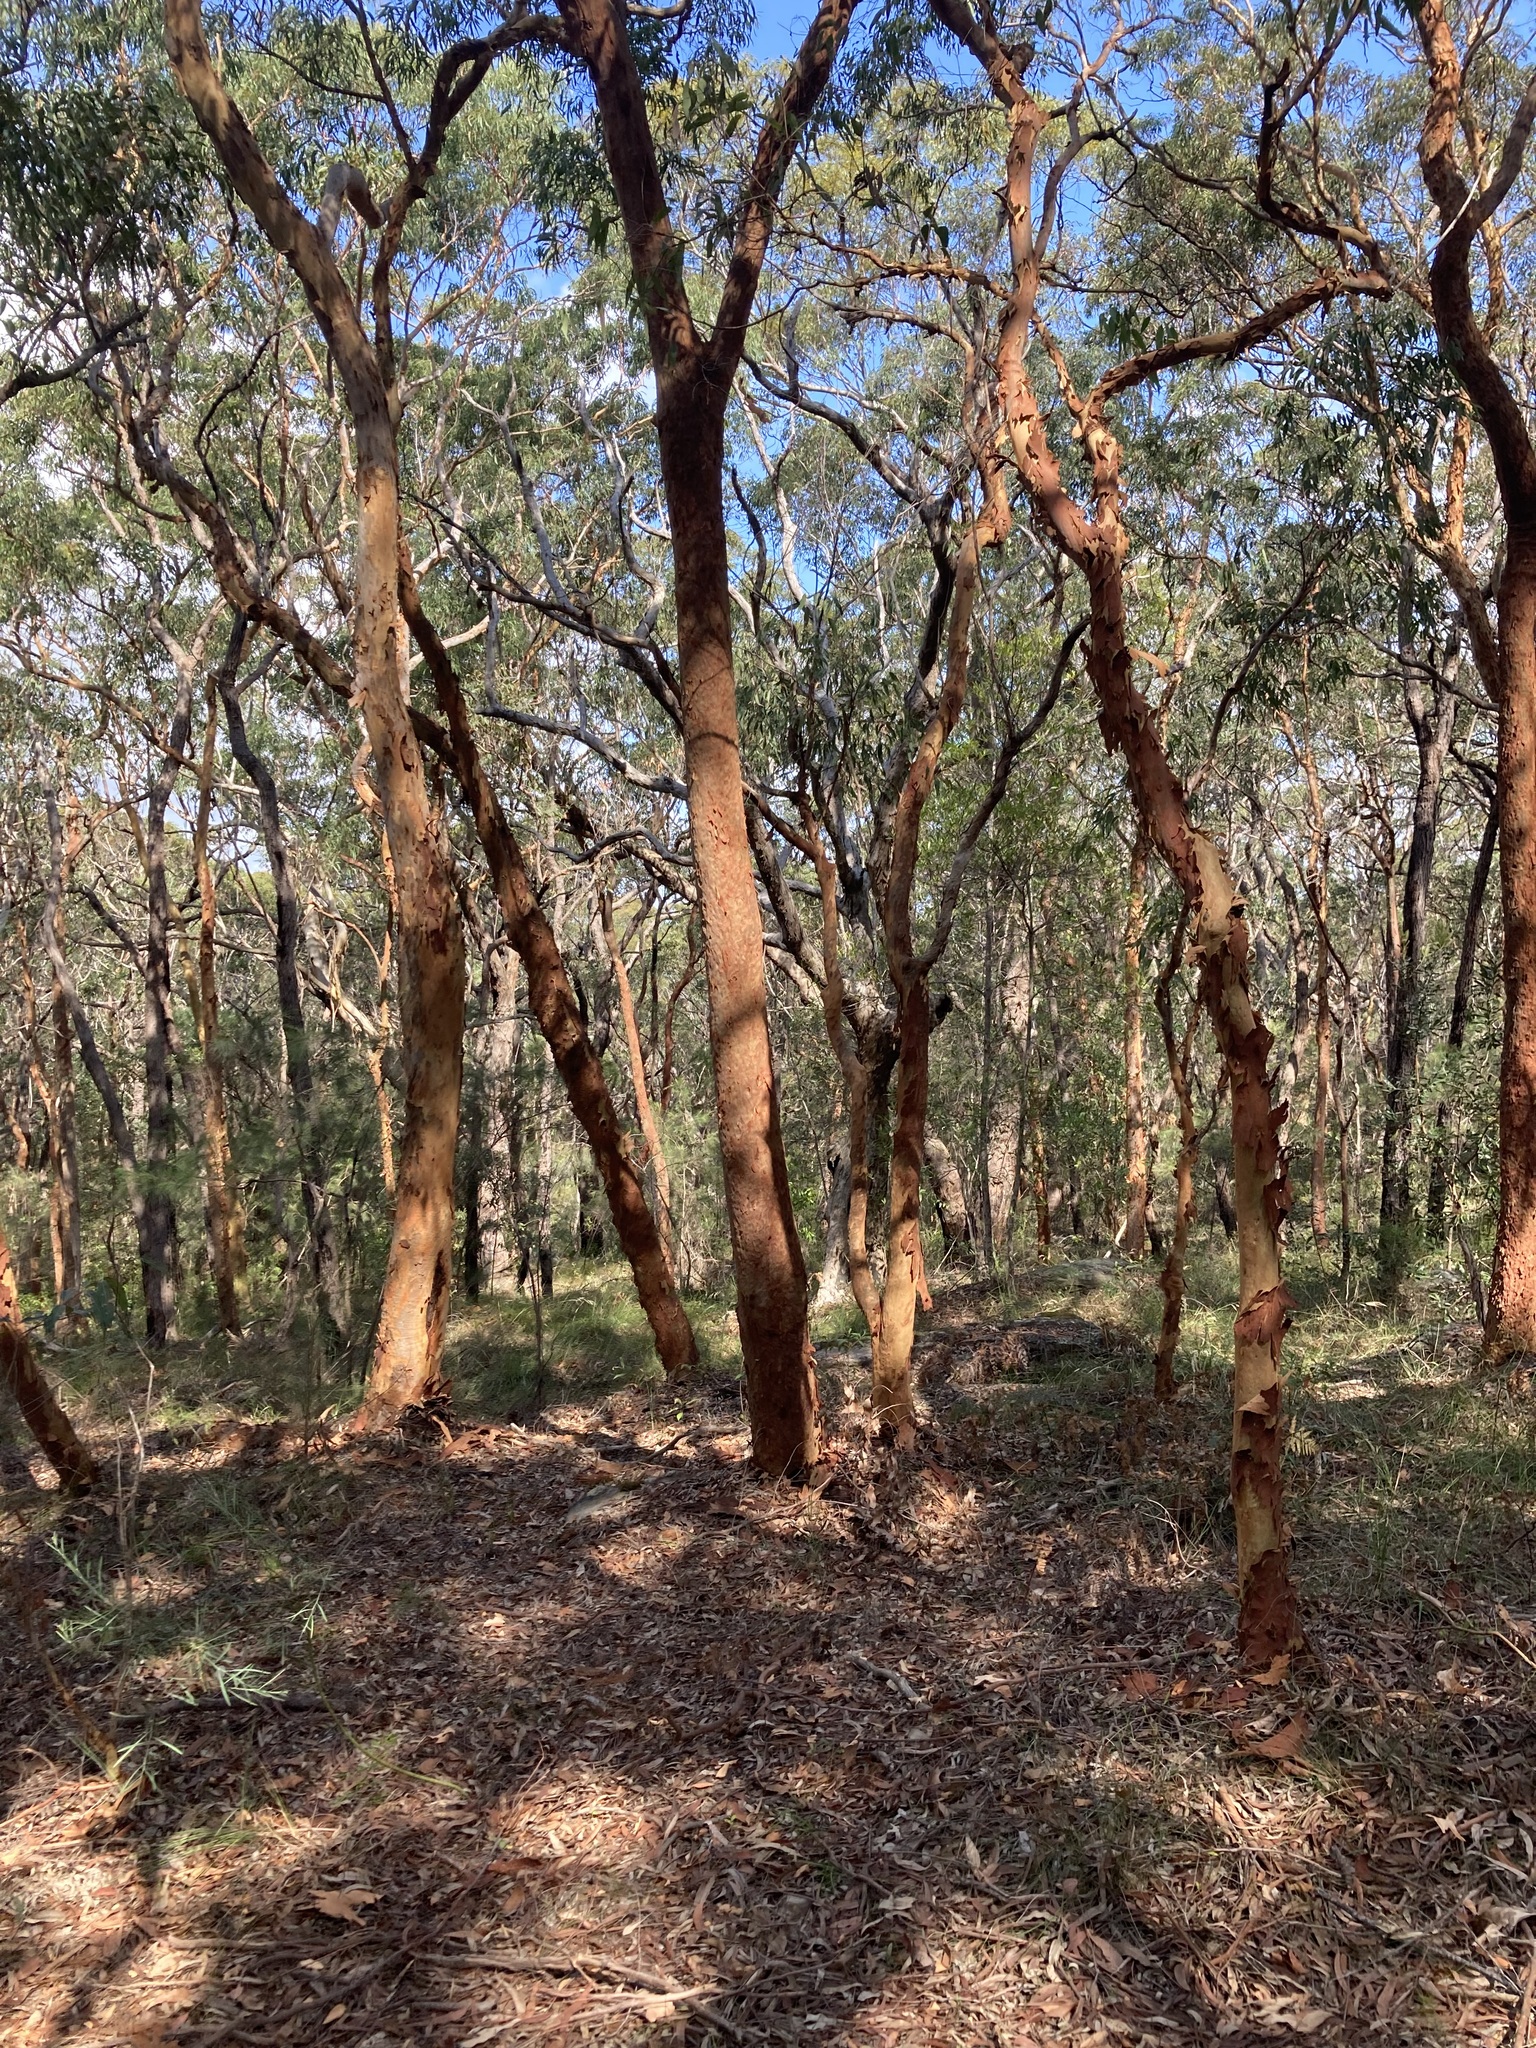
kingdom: Plantae
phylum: Tracheophyta
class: Magnoliopsida
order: Myrtales
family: Myrtaceae
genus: Angophora
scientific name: Angophora costata
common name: Gum myrtle
